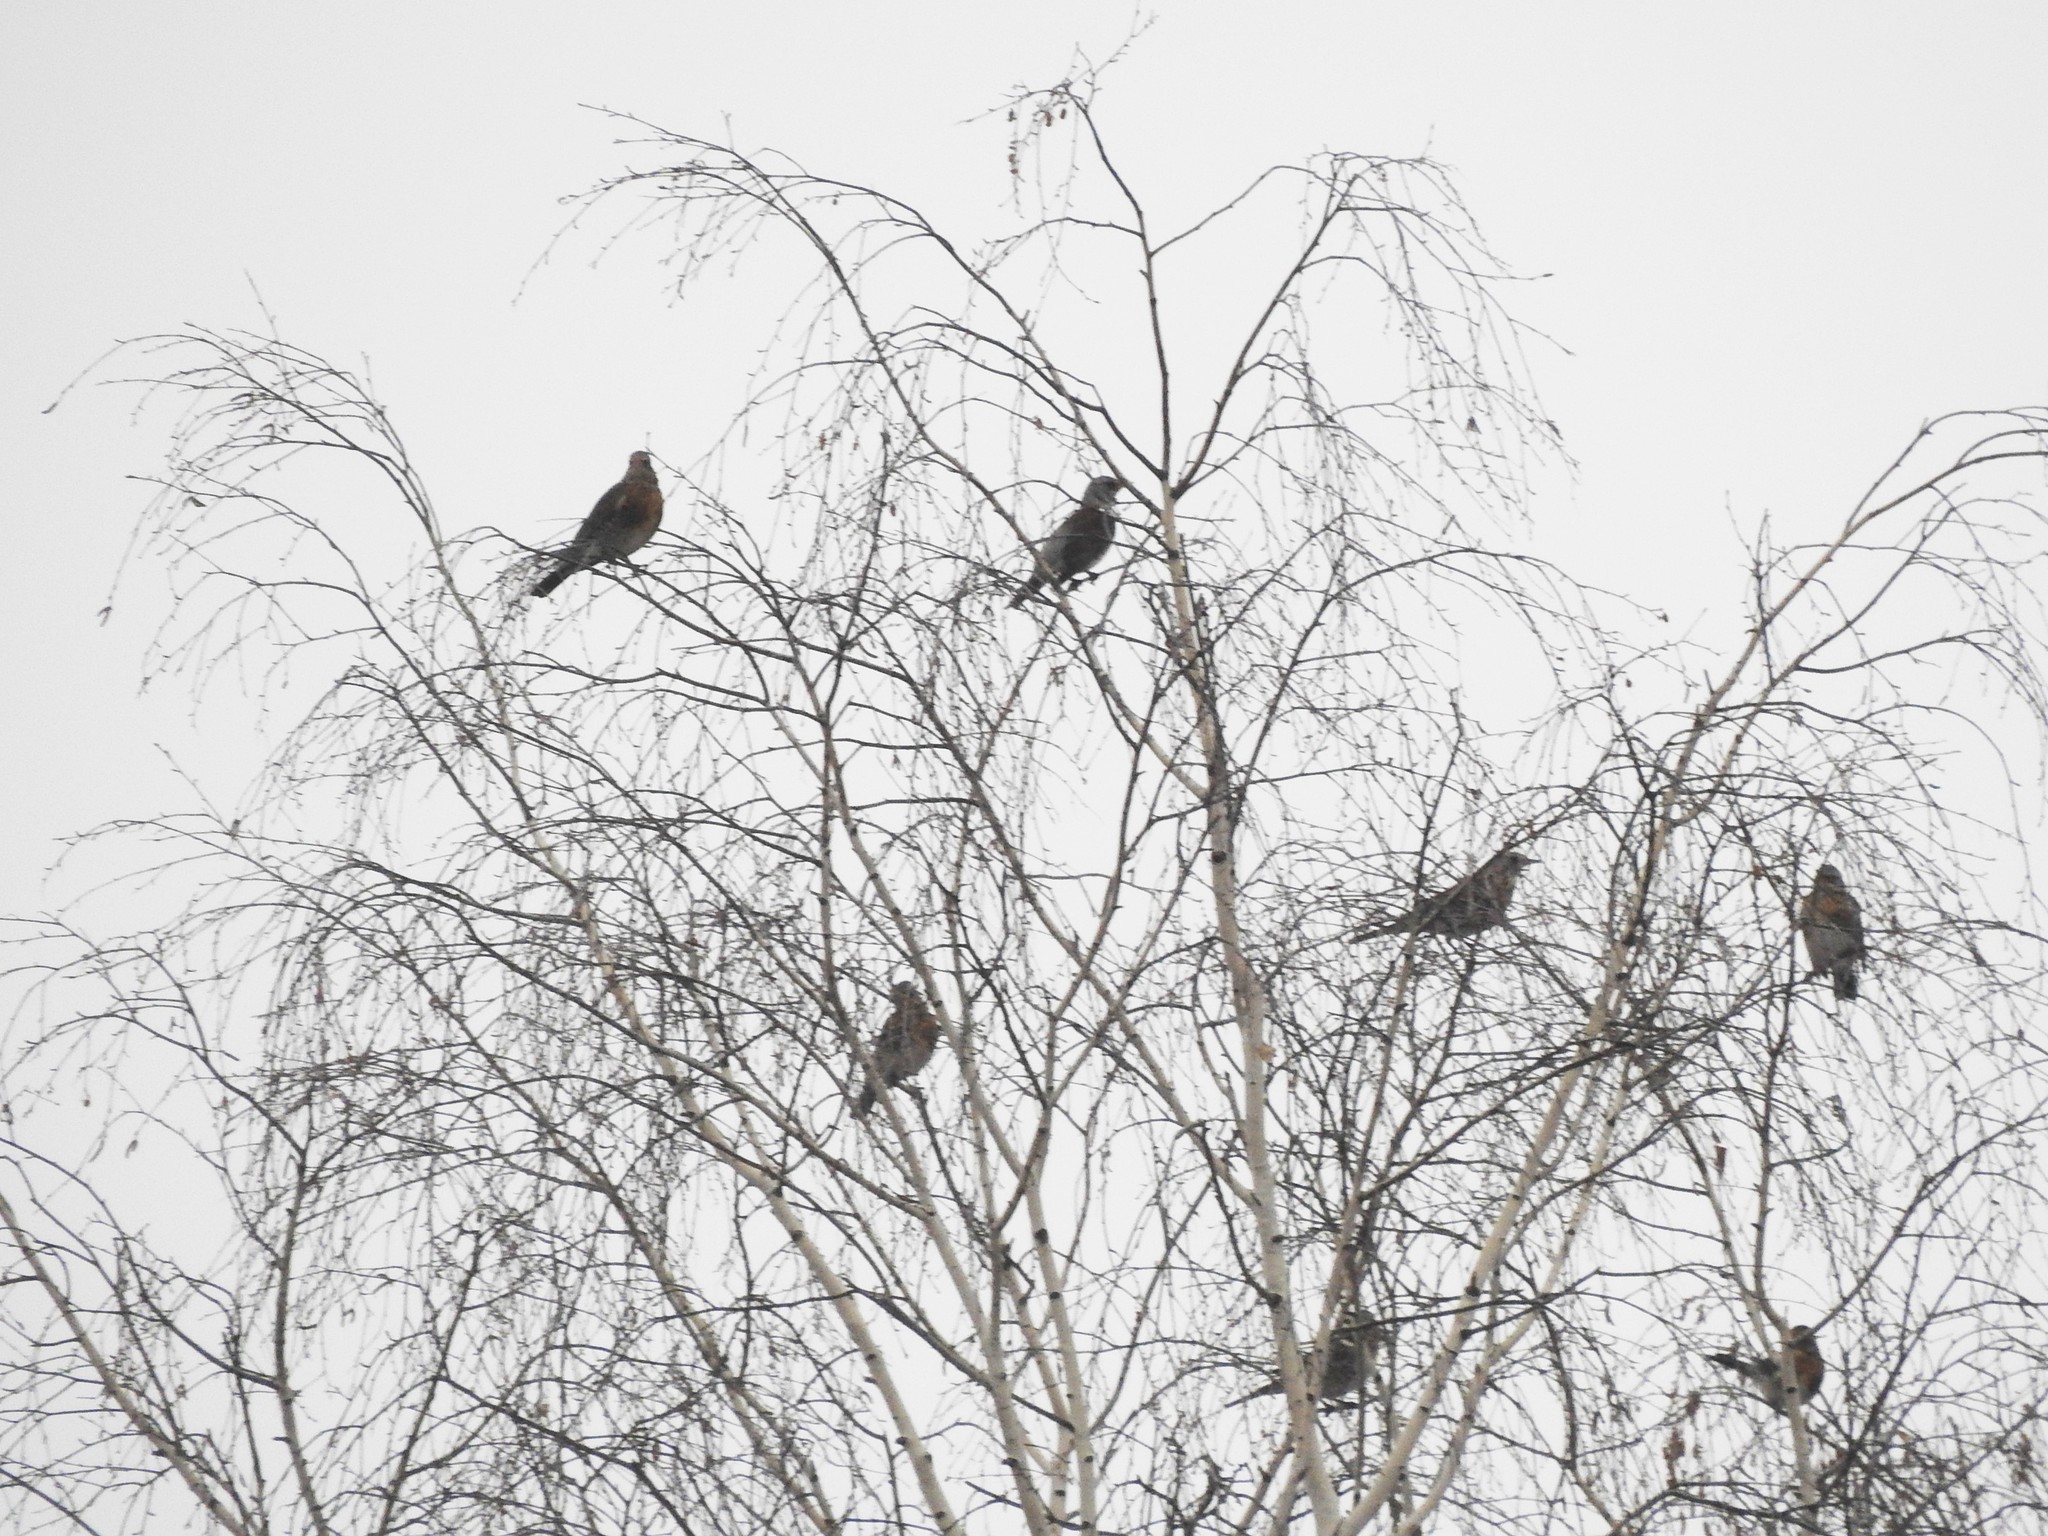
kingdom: Animalia
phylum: Chordata
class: Aves
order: Passeriformes
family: Turdidae
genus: Turdus
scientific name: Turdus pilaris
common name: Fieldfare
